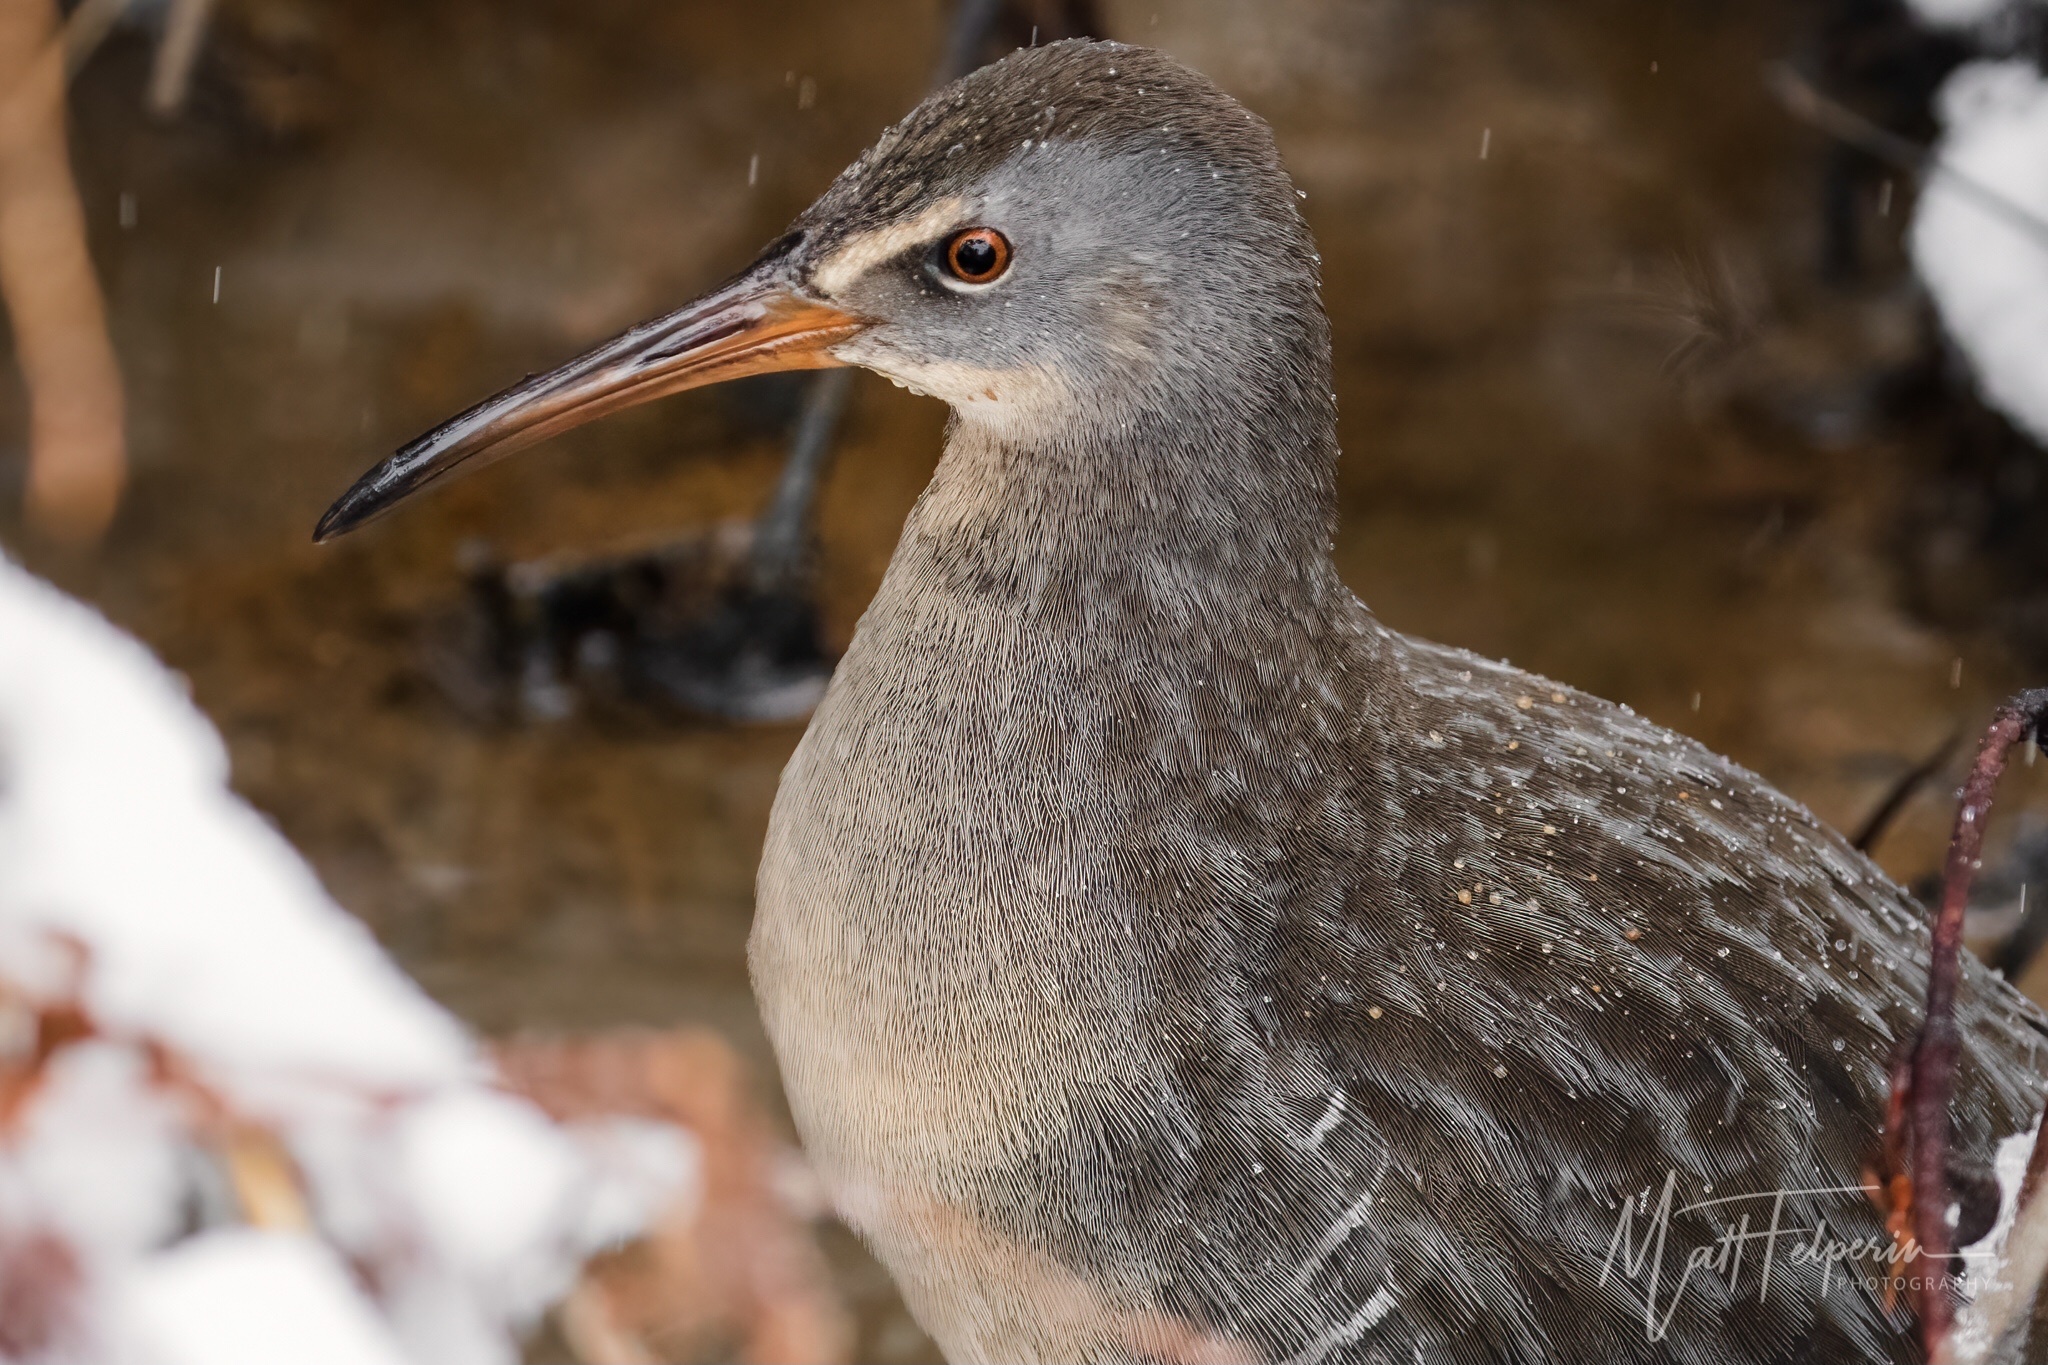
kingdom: Animalia
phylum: Chordata
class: Aves
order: Gruiformes
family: Rallidae
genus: Rallus
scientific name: Rallus crepitans
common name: Clapper rail
